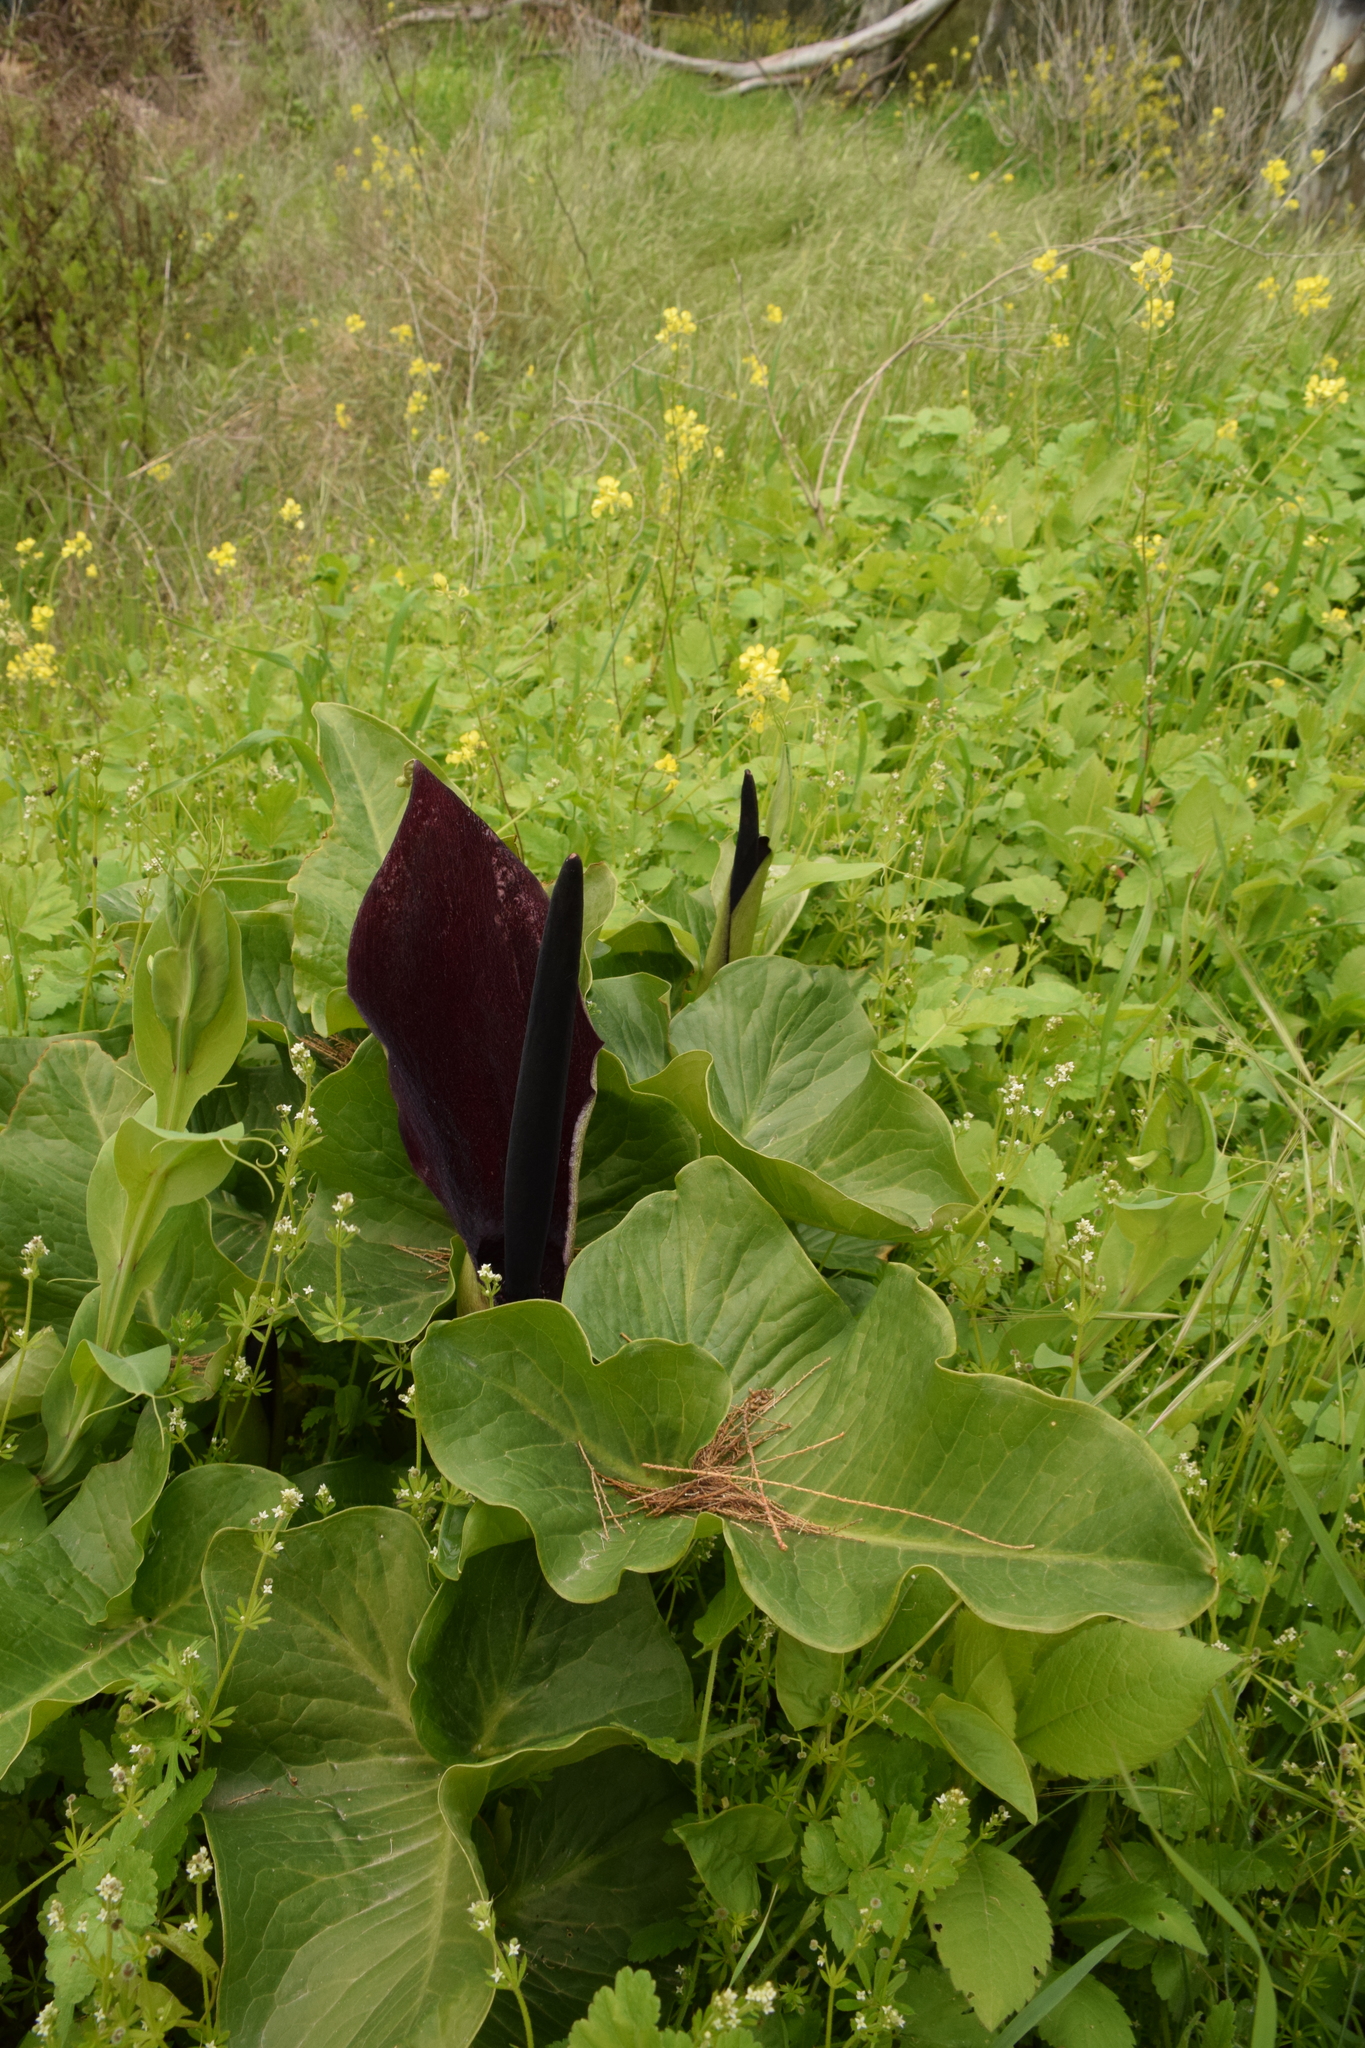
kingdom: Plantae
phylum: Tracheophyta
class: Liliopsida
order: Alismatales
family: Araceae
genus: Arum
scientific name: Arum palaestinum
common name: Solomon's lily
